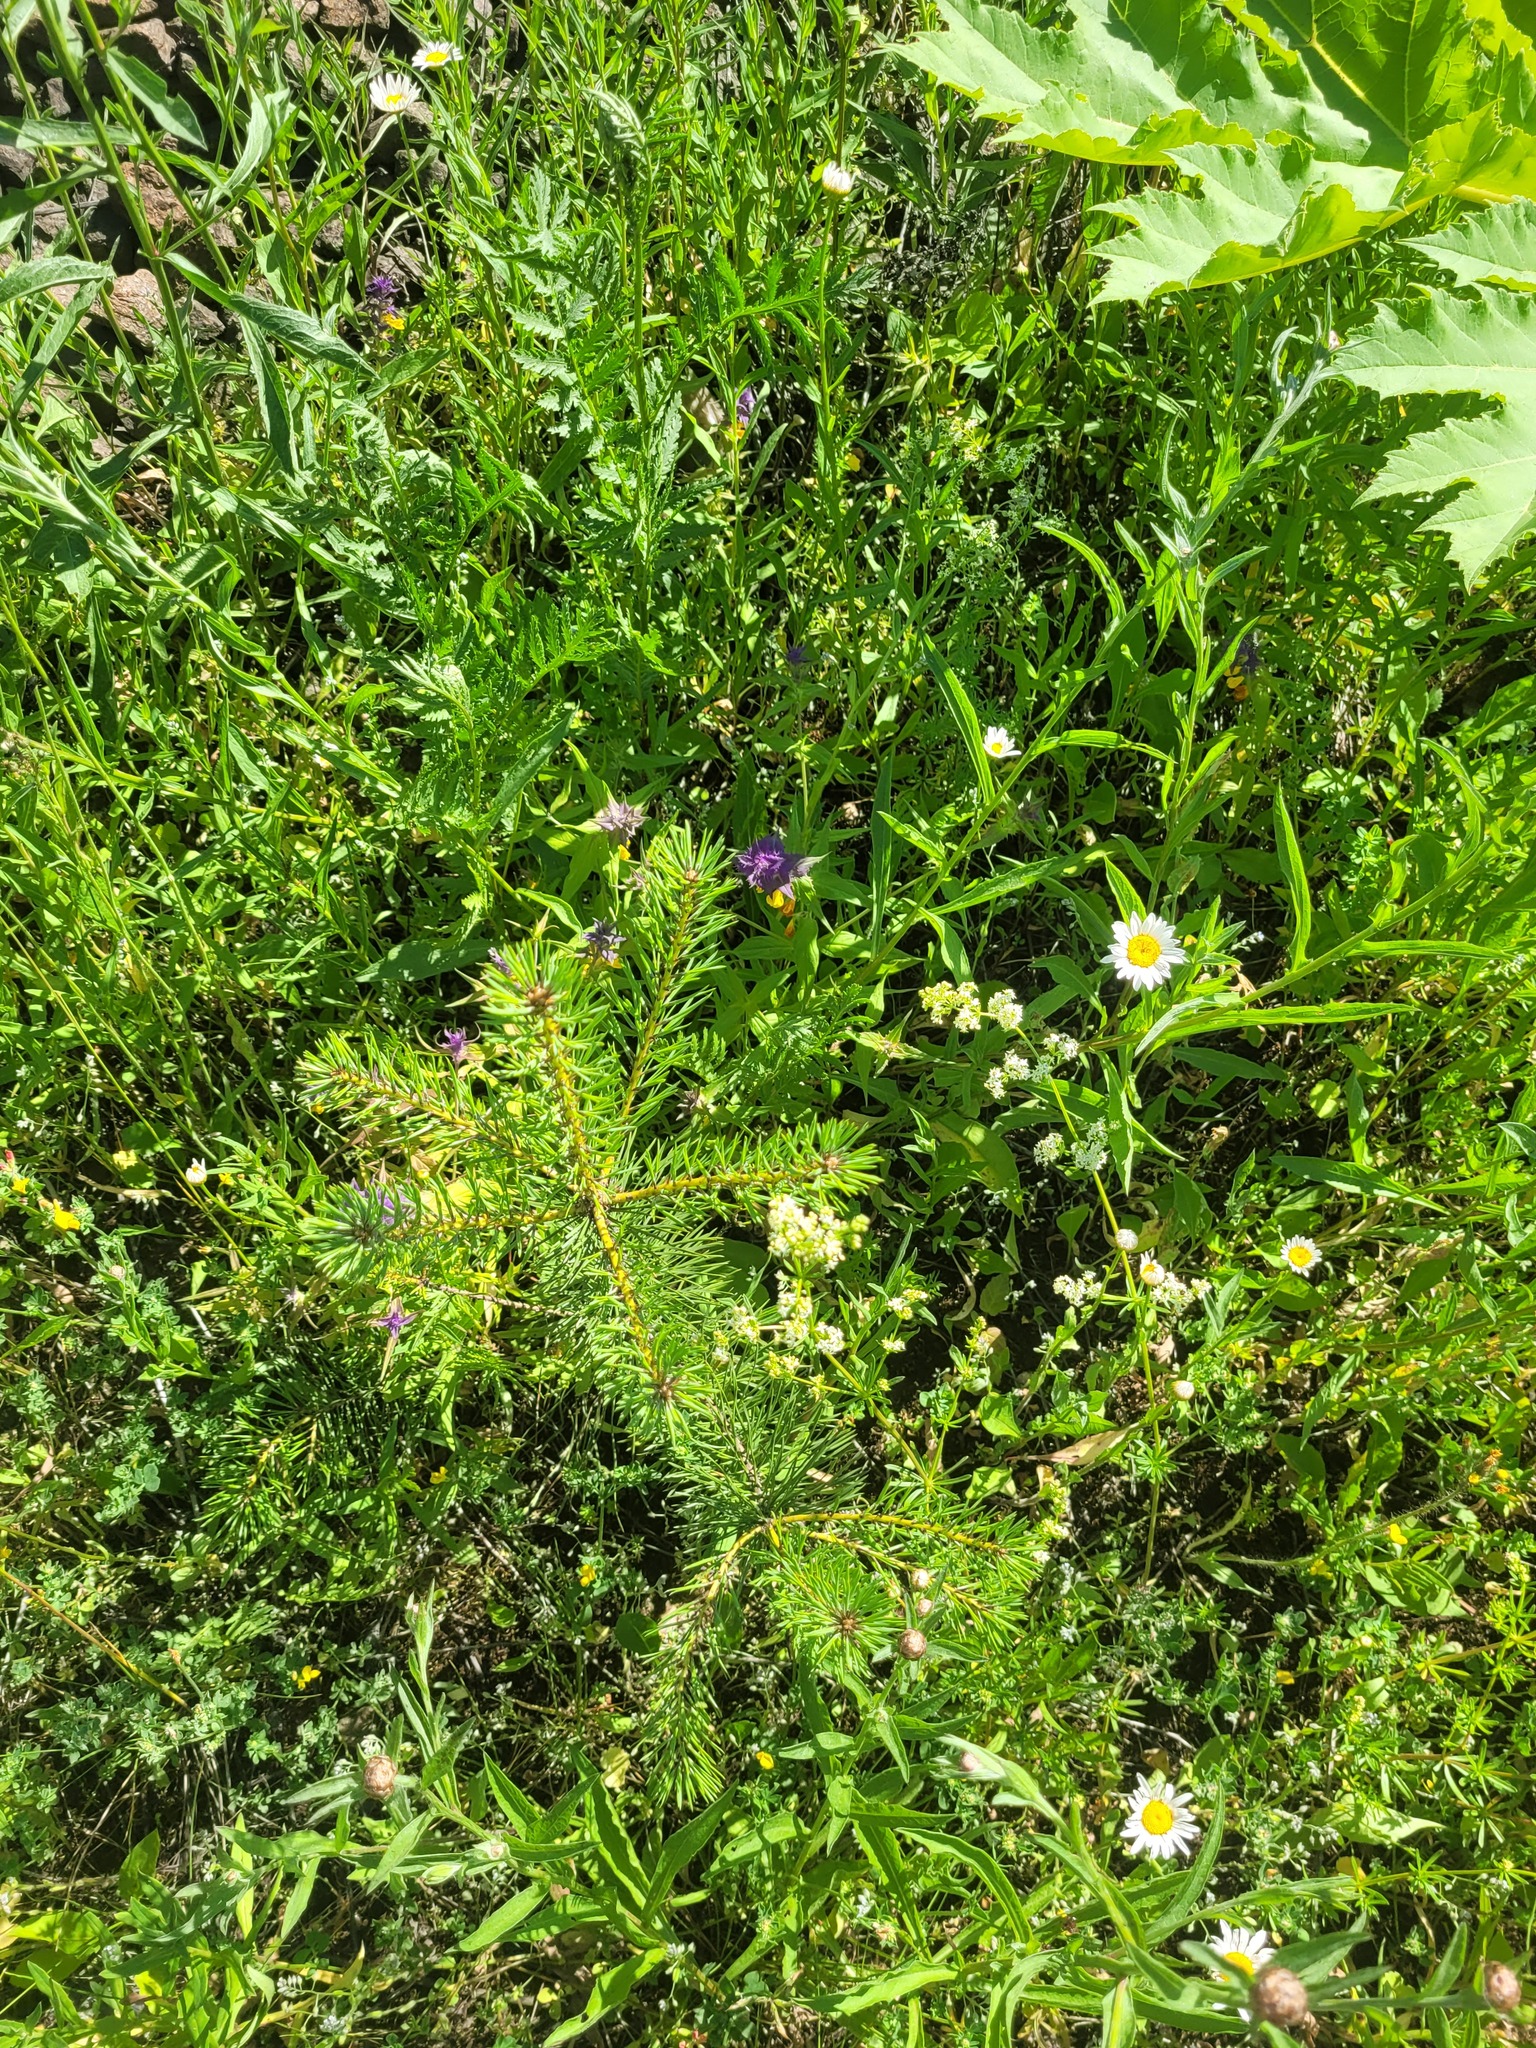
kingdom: Plantae
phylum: Tracheophyta
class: Pinopsida
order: Pinales
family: Pinaceae
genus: Pinus
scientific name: Pinus sylvestris
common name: Scots pine
